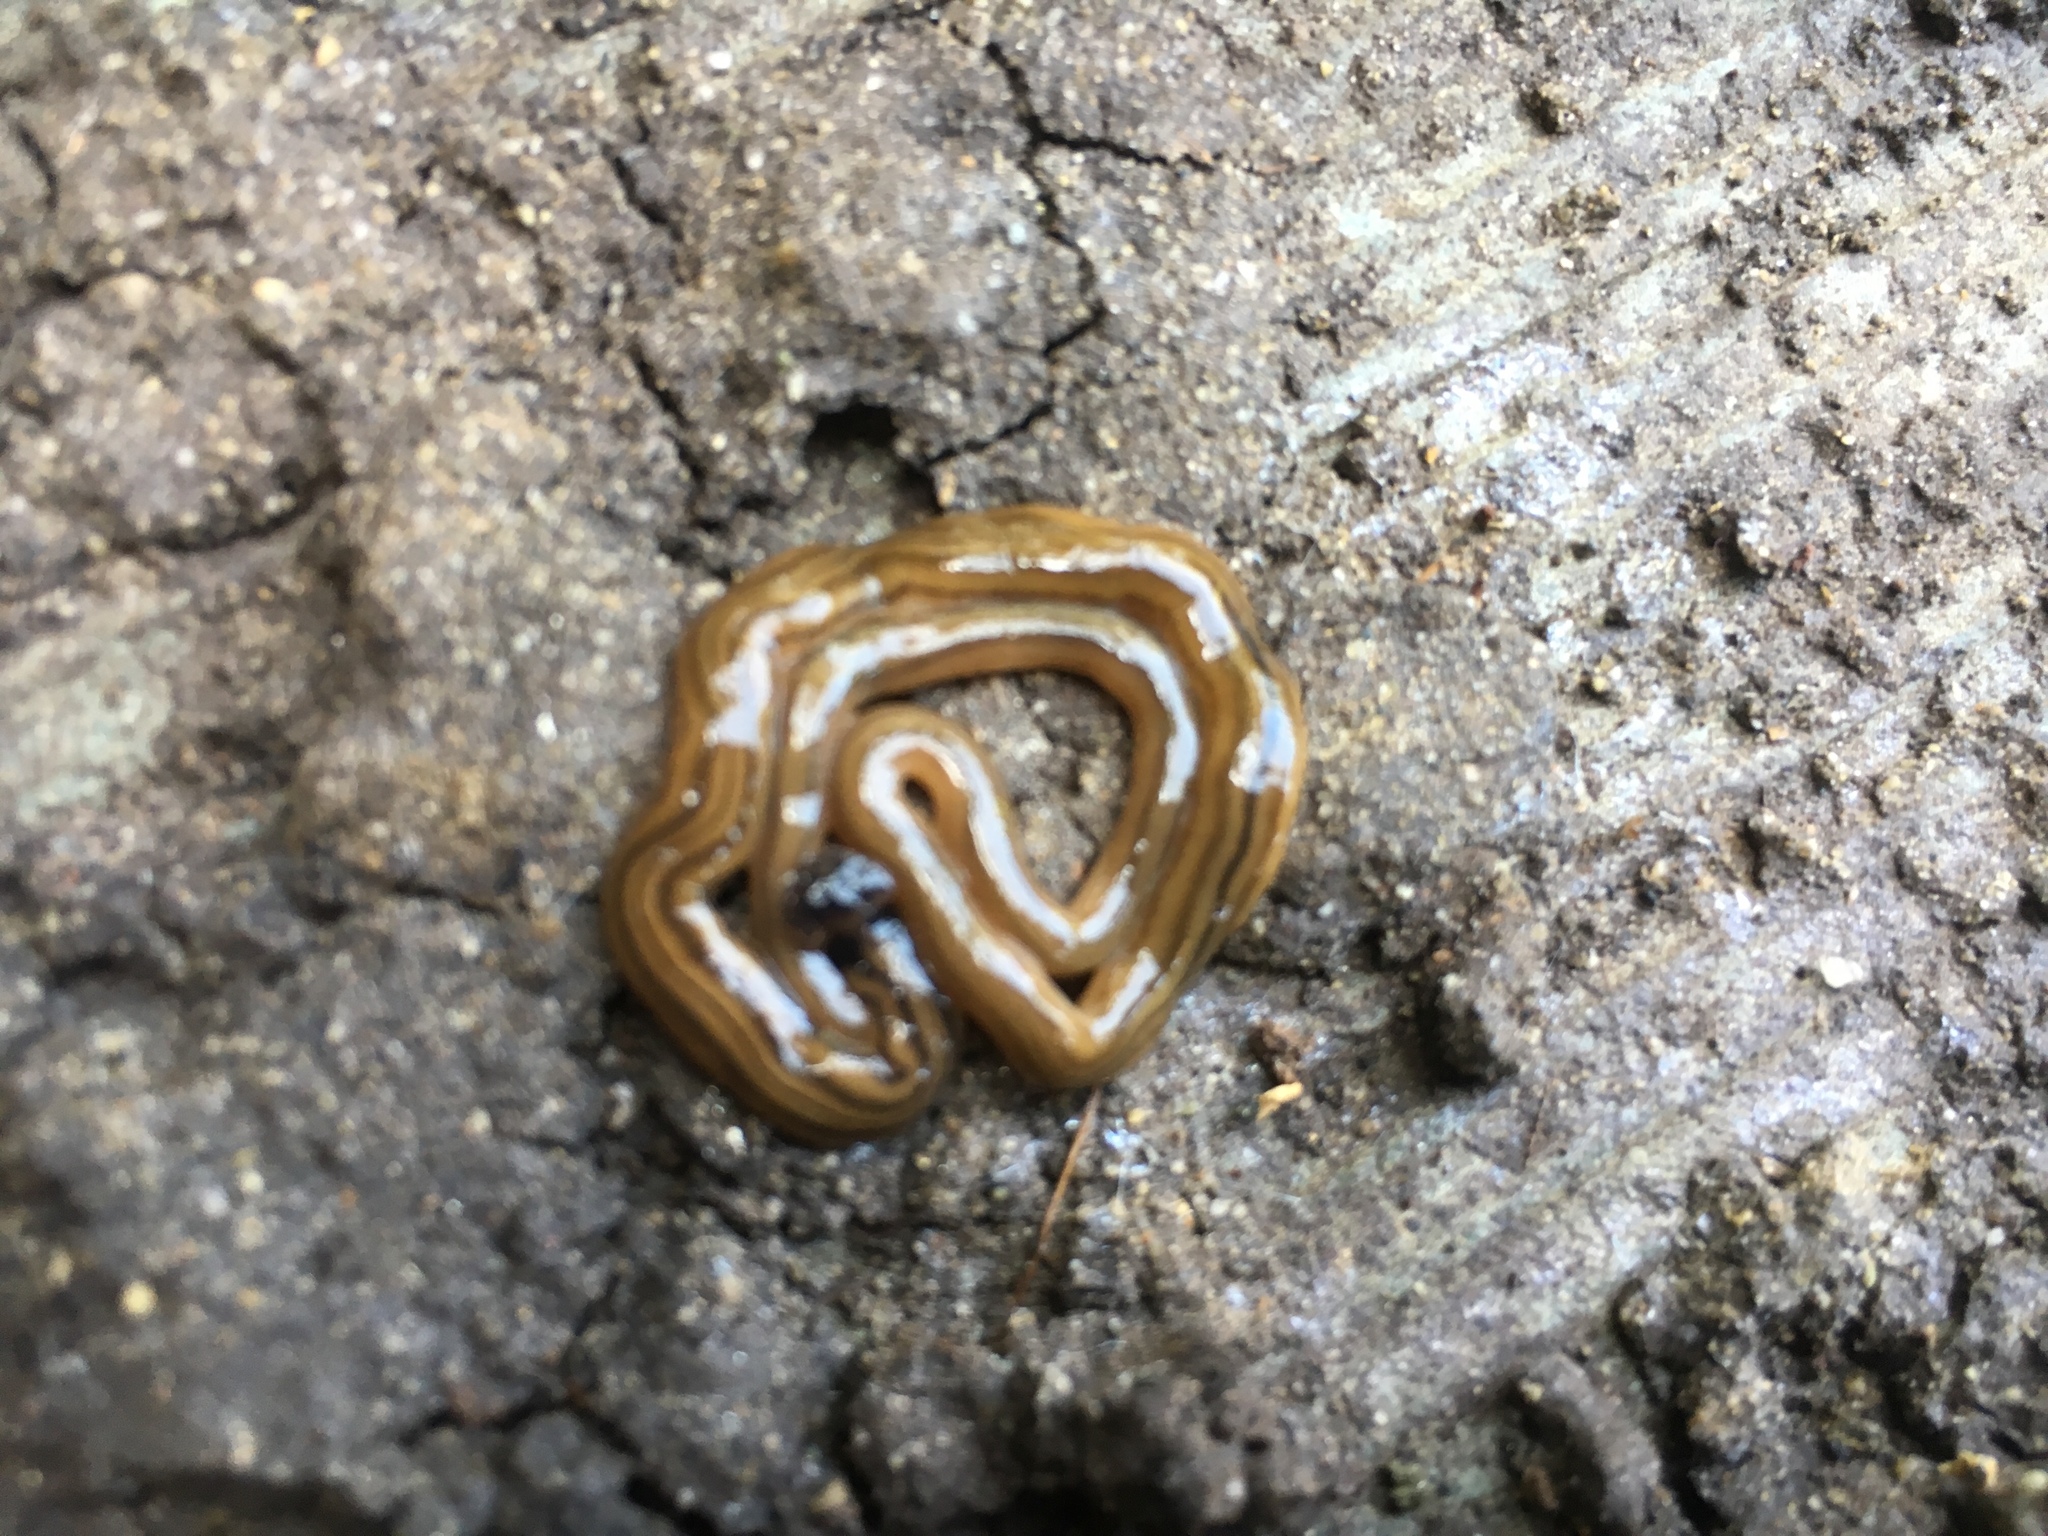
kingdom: Animalia
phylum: Platyhelminthes
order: Tricladida
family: Geoplanidae
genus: Bipalium
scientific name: Bipalium kewense
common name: Hammerhead flatworm
